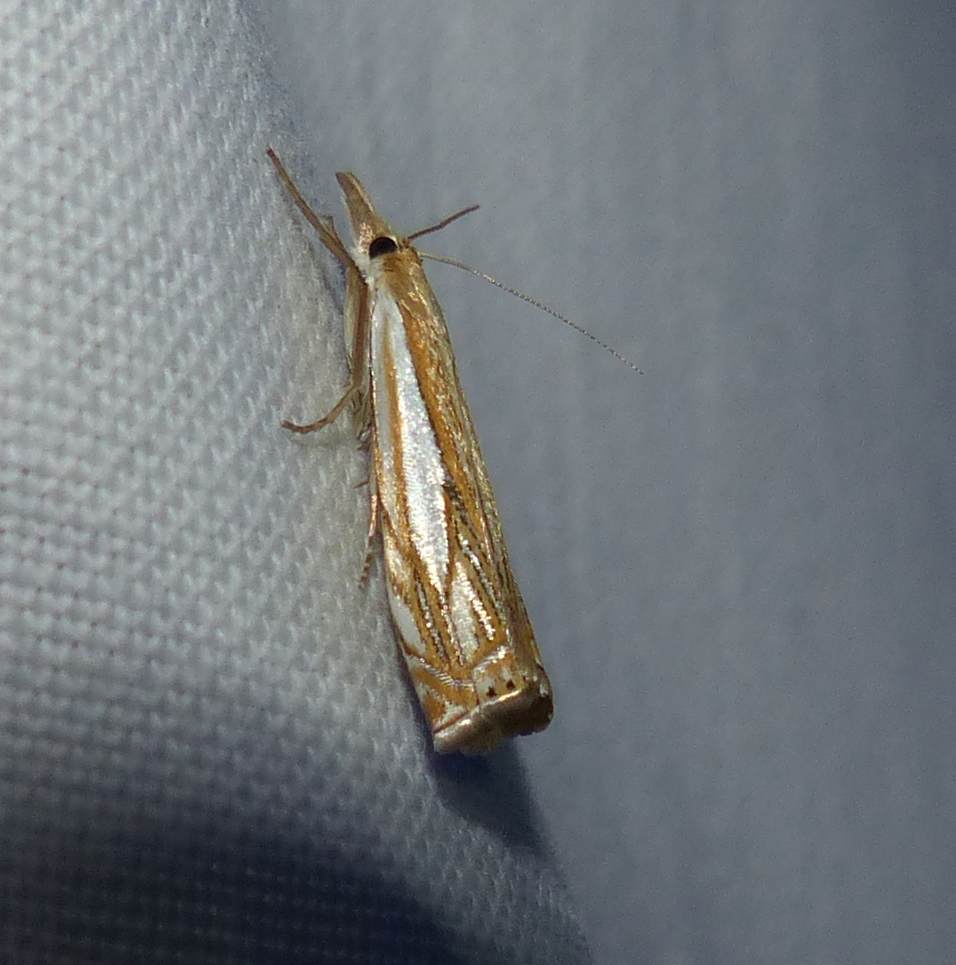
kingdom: Animalia
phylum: Arthropoda
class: Insecta
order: Lepidoptera
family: Crambidae
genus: Crambus
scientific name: Crambus saltuellus
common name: Pasture grass-veneer
